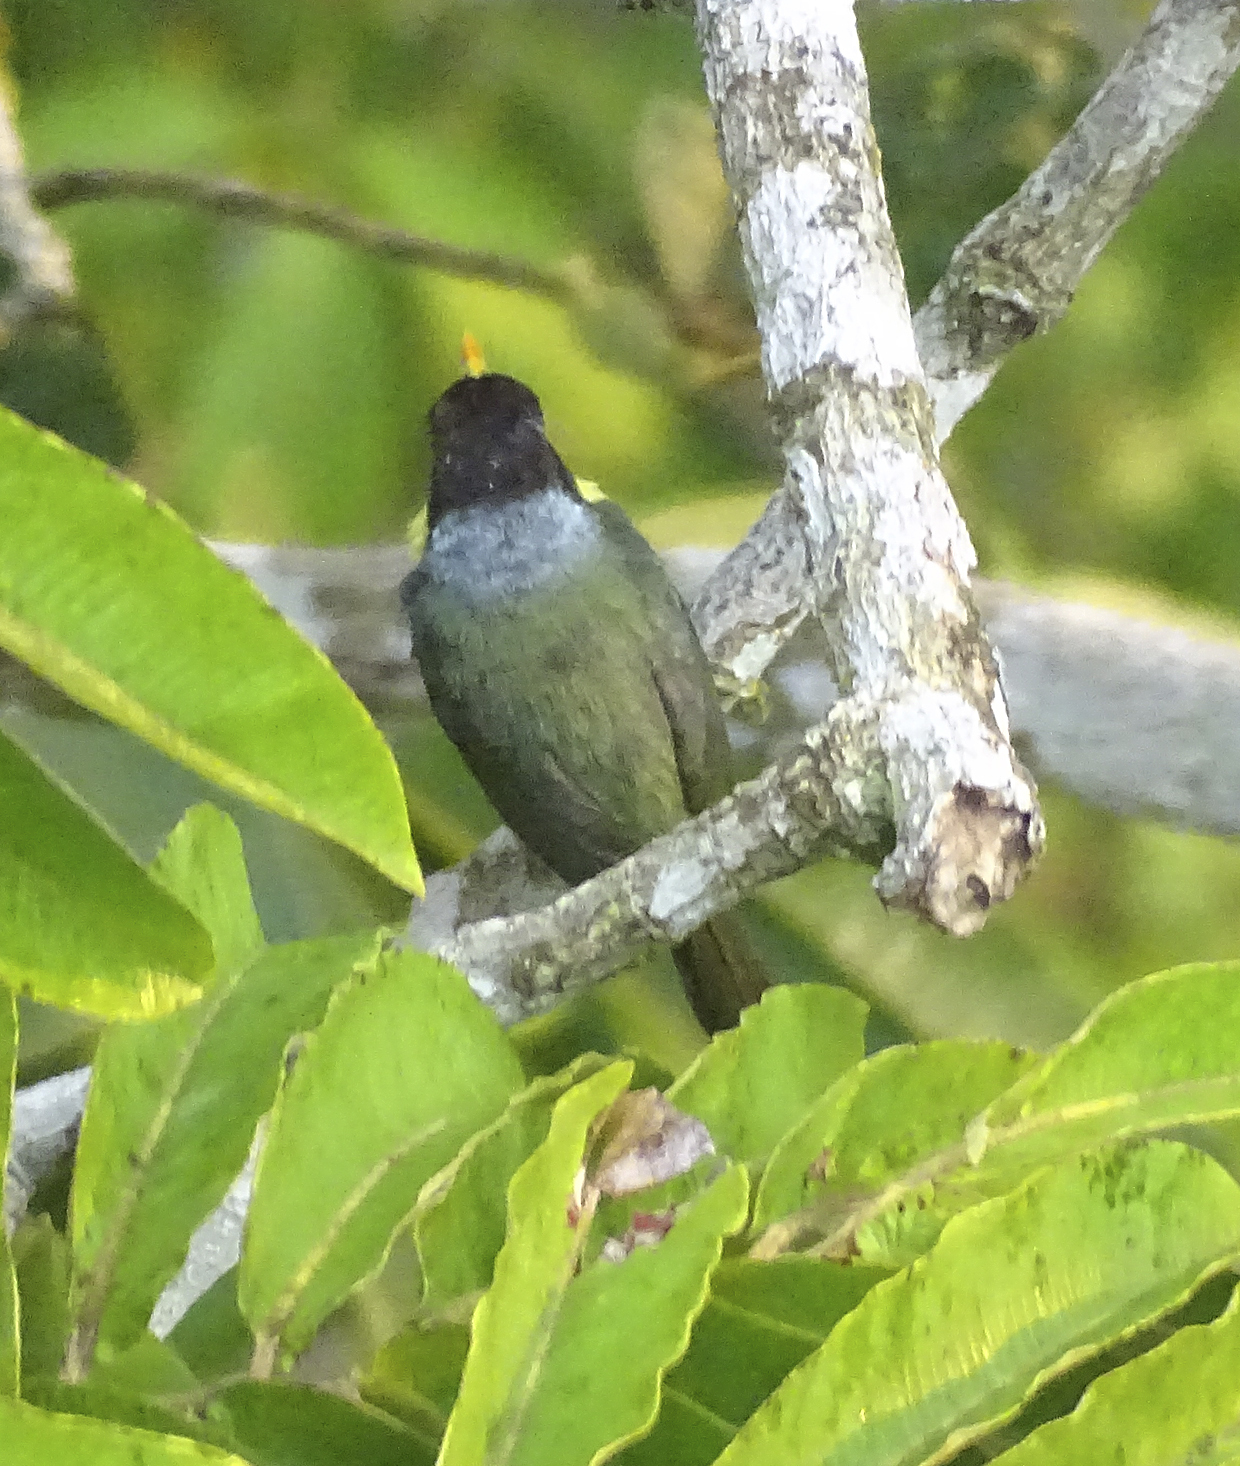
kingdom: Animalia
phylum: Chordata
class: Aves
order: Piciformes
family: Capitonidae
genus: Eubucco
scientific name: Eubucco richardsoni
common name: Lemon-throated barbet
